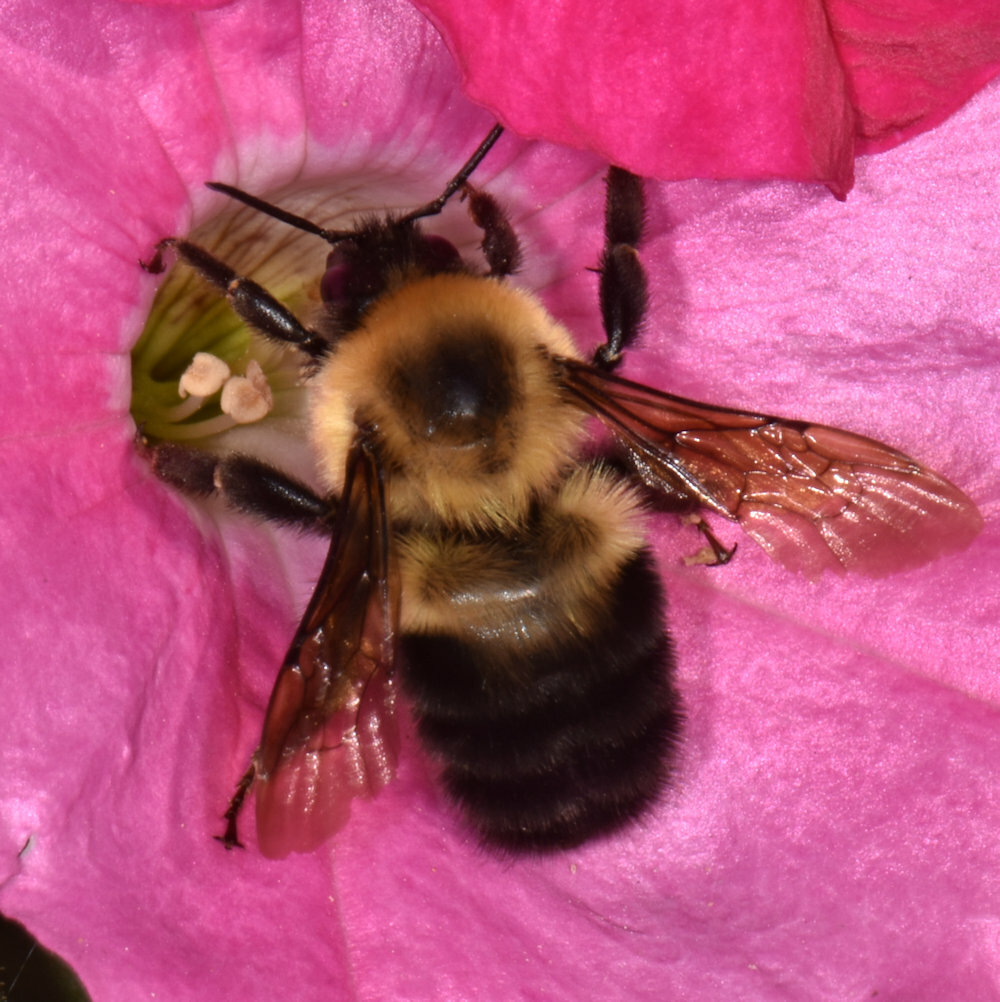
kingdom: Animalia
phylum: Arthropoda
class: Insecta
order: Hymenoptera
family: Apidae
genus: Bombus
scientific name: Bombus bimaculatus
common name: Two-spotted bumble bee
